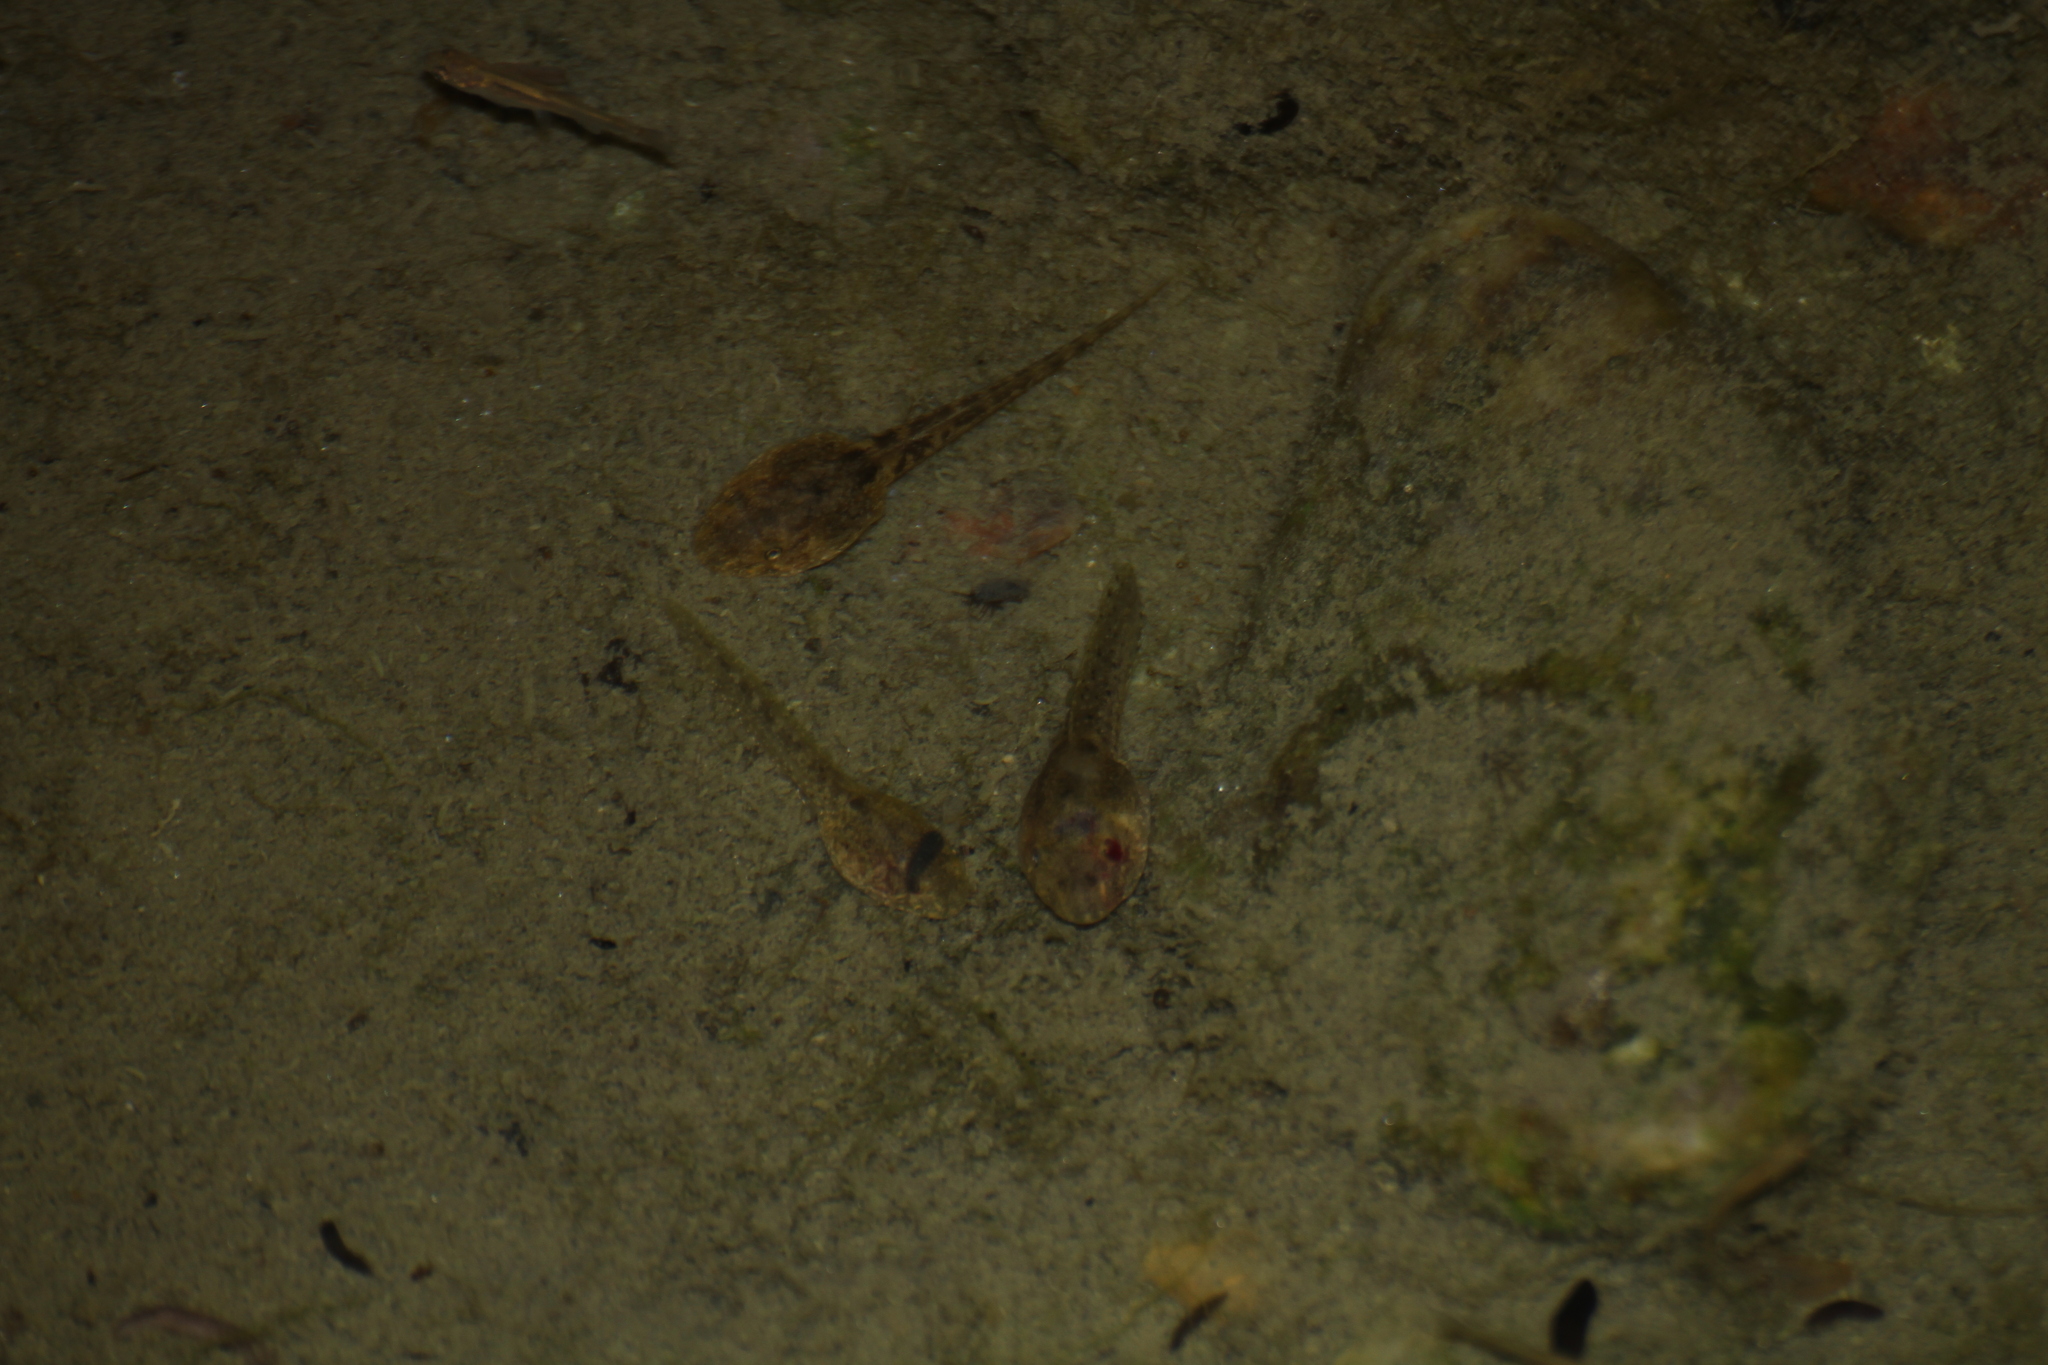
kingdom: Animalia
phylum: Chordata
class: Amphibia
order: Anura
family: Alytidae
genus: Alytes
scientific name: Alytes obstetricans
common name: Midwife toad
